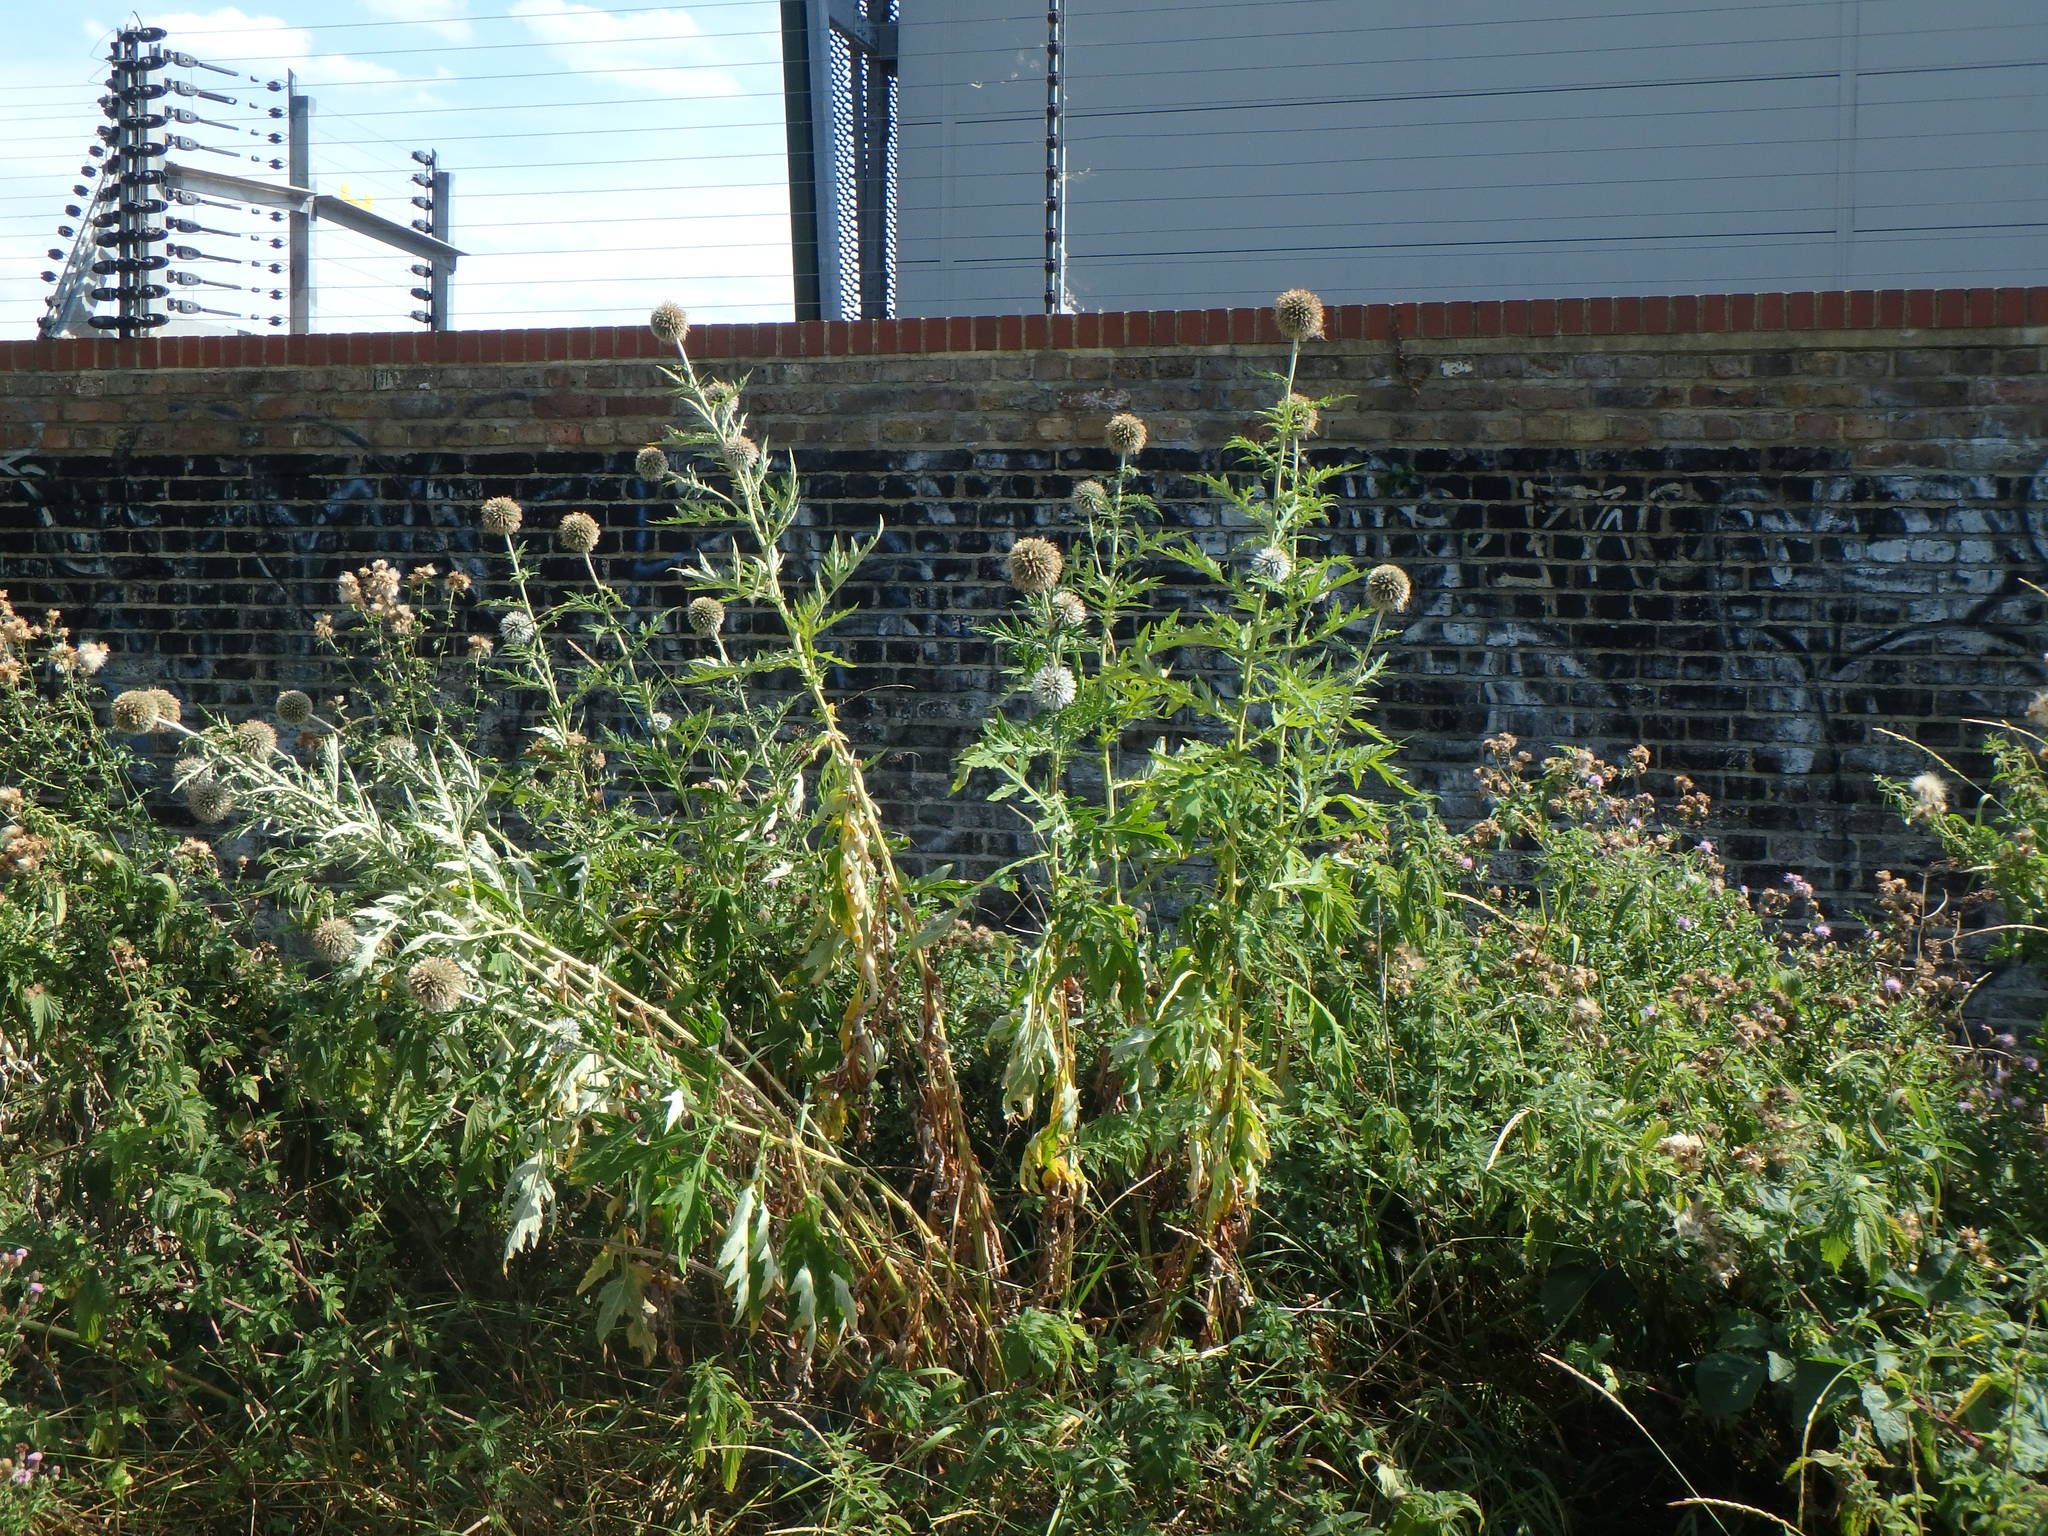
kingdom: Plantae
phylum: Tracheophyta
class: Magnoliopsida
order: Asterales
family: Asteraceae
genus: Echinops
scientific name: Echinops sphaerocephalus
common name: Glandular globe-thistle
